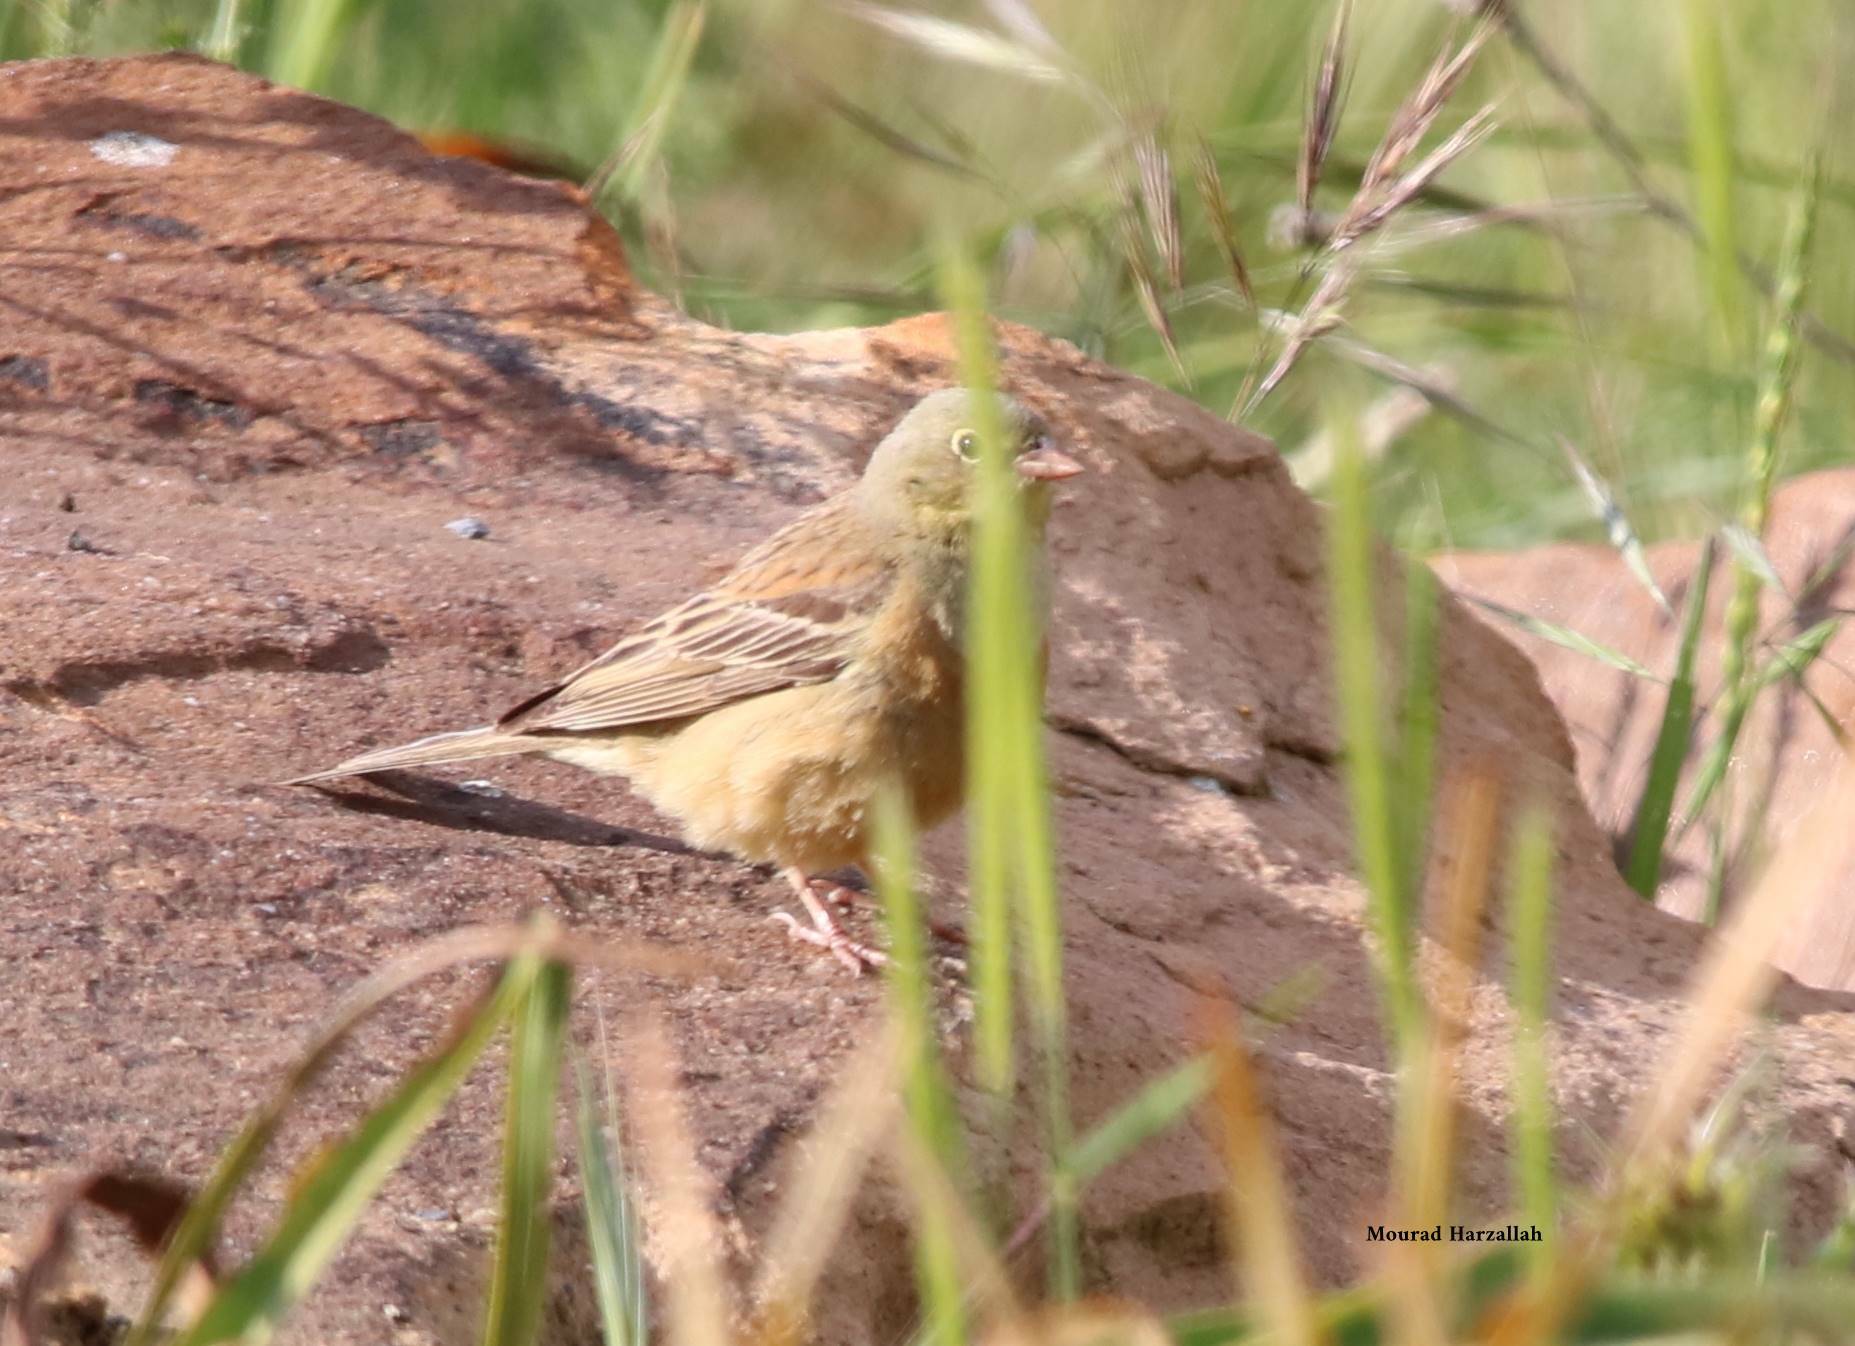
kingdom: Animalia
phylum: Chordata
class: Aves
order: Passeriformes
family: Emberizidae
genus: Emberiza
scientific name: Emberiza hortulana
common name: Ortolan bunting
